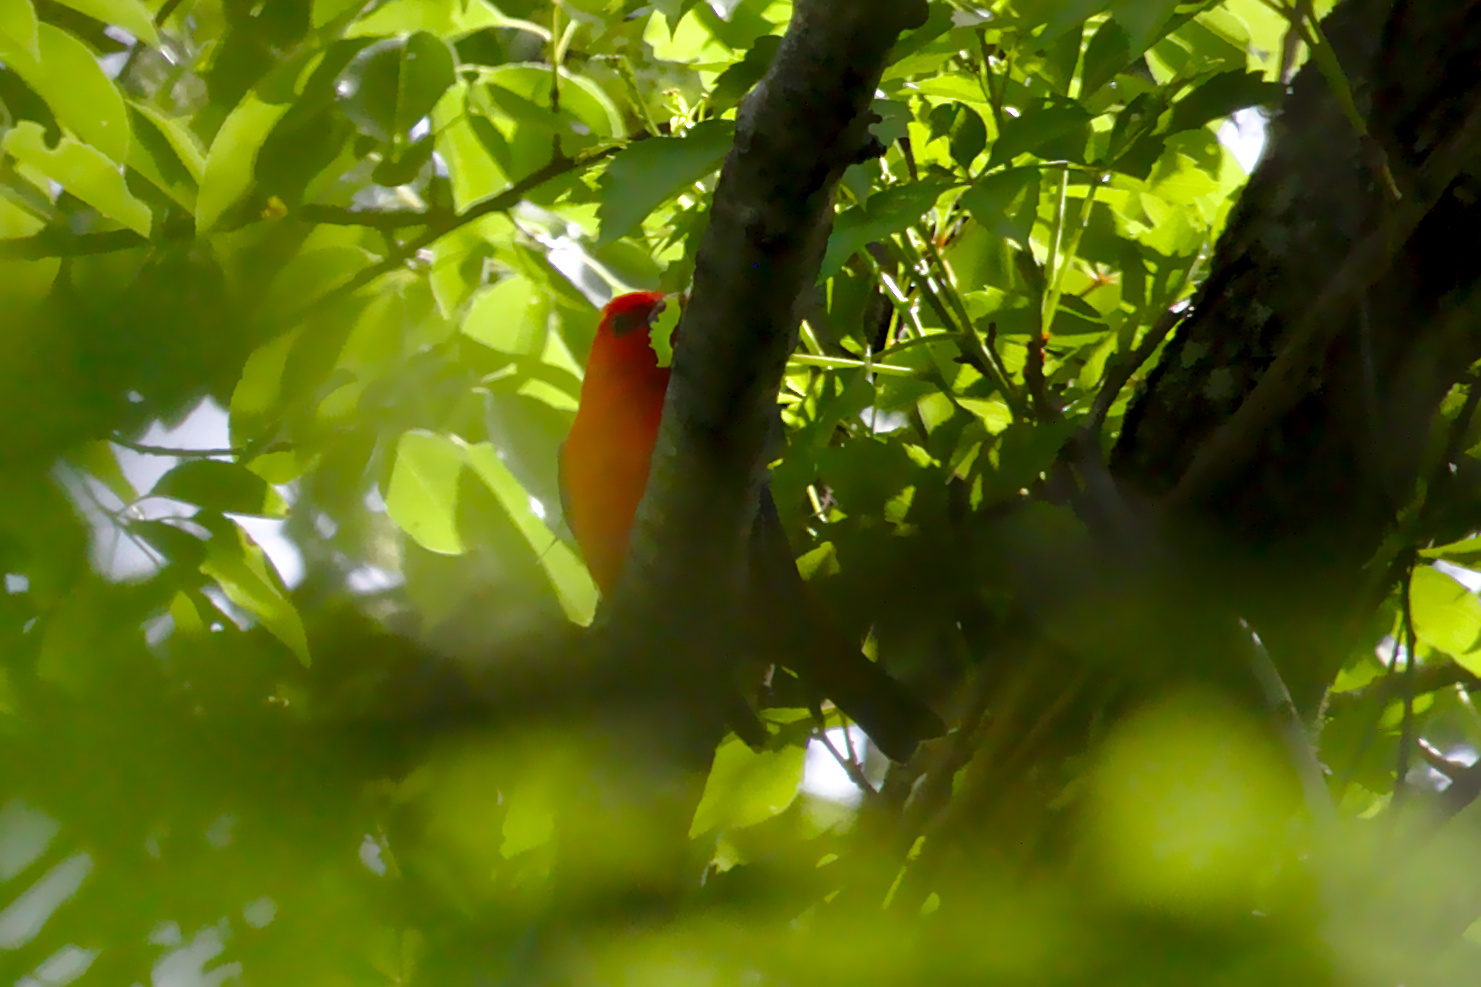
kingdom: Animalia
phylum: Chordata
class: Aves
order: Passeriformes
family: Cardinalidae
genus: Piranga
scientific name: Piranga olivacea
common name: Scarlet tanager
